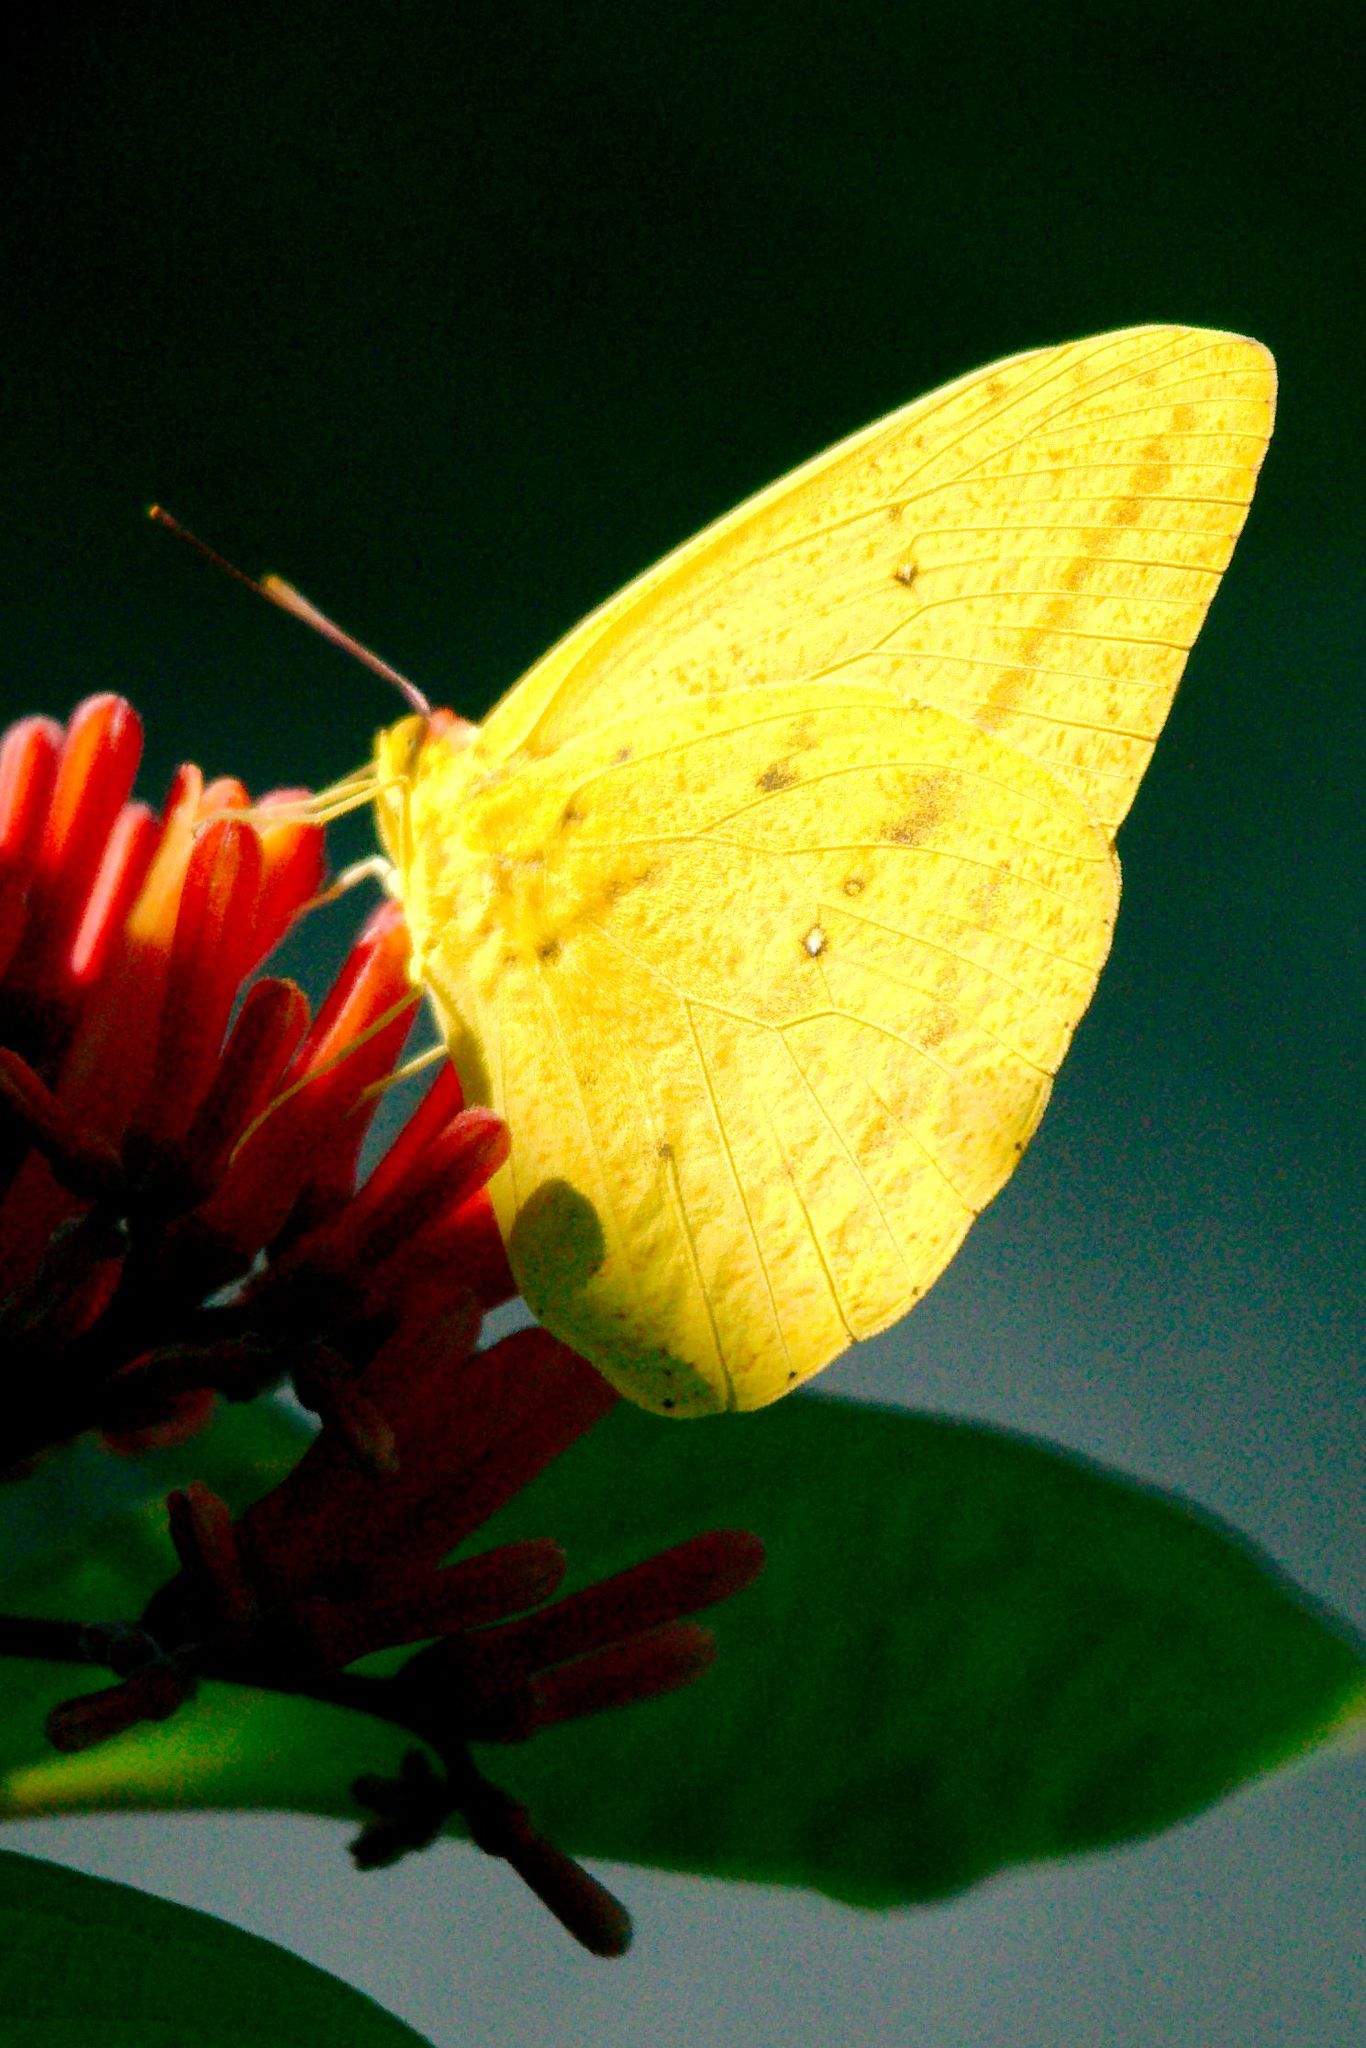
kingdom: Animalia
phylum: Arthropoda
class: Insecta
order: Lepidoptera
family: Pieridae
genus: Phoebis
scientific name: Phoebis agarithe
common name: Large orange sulphur
